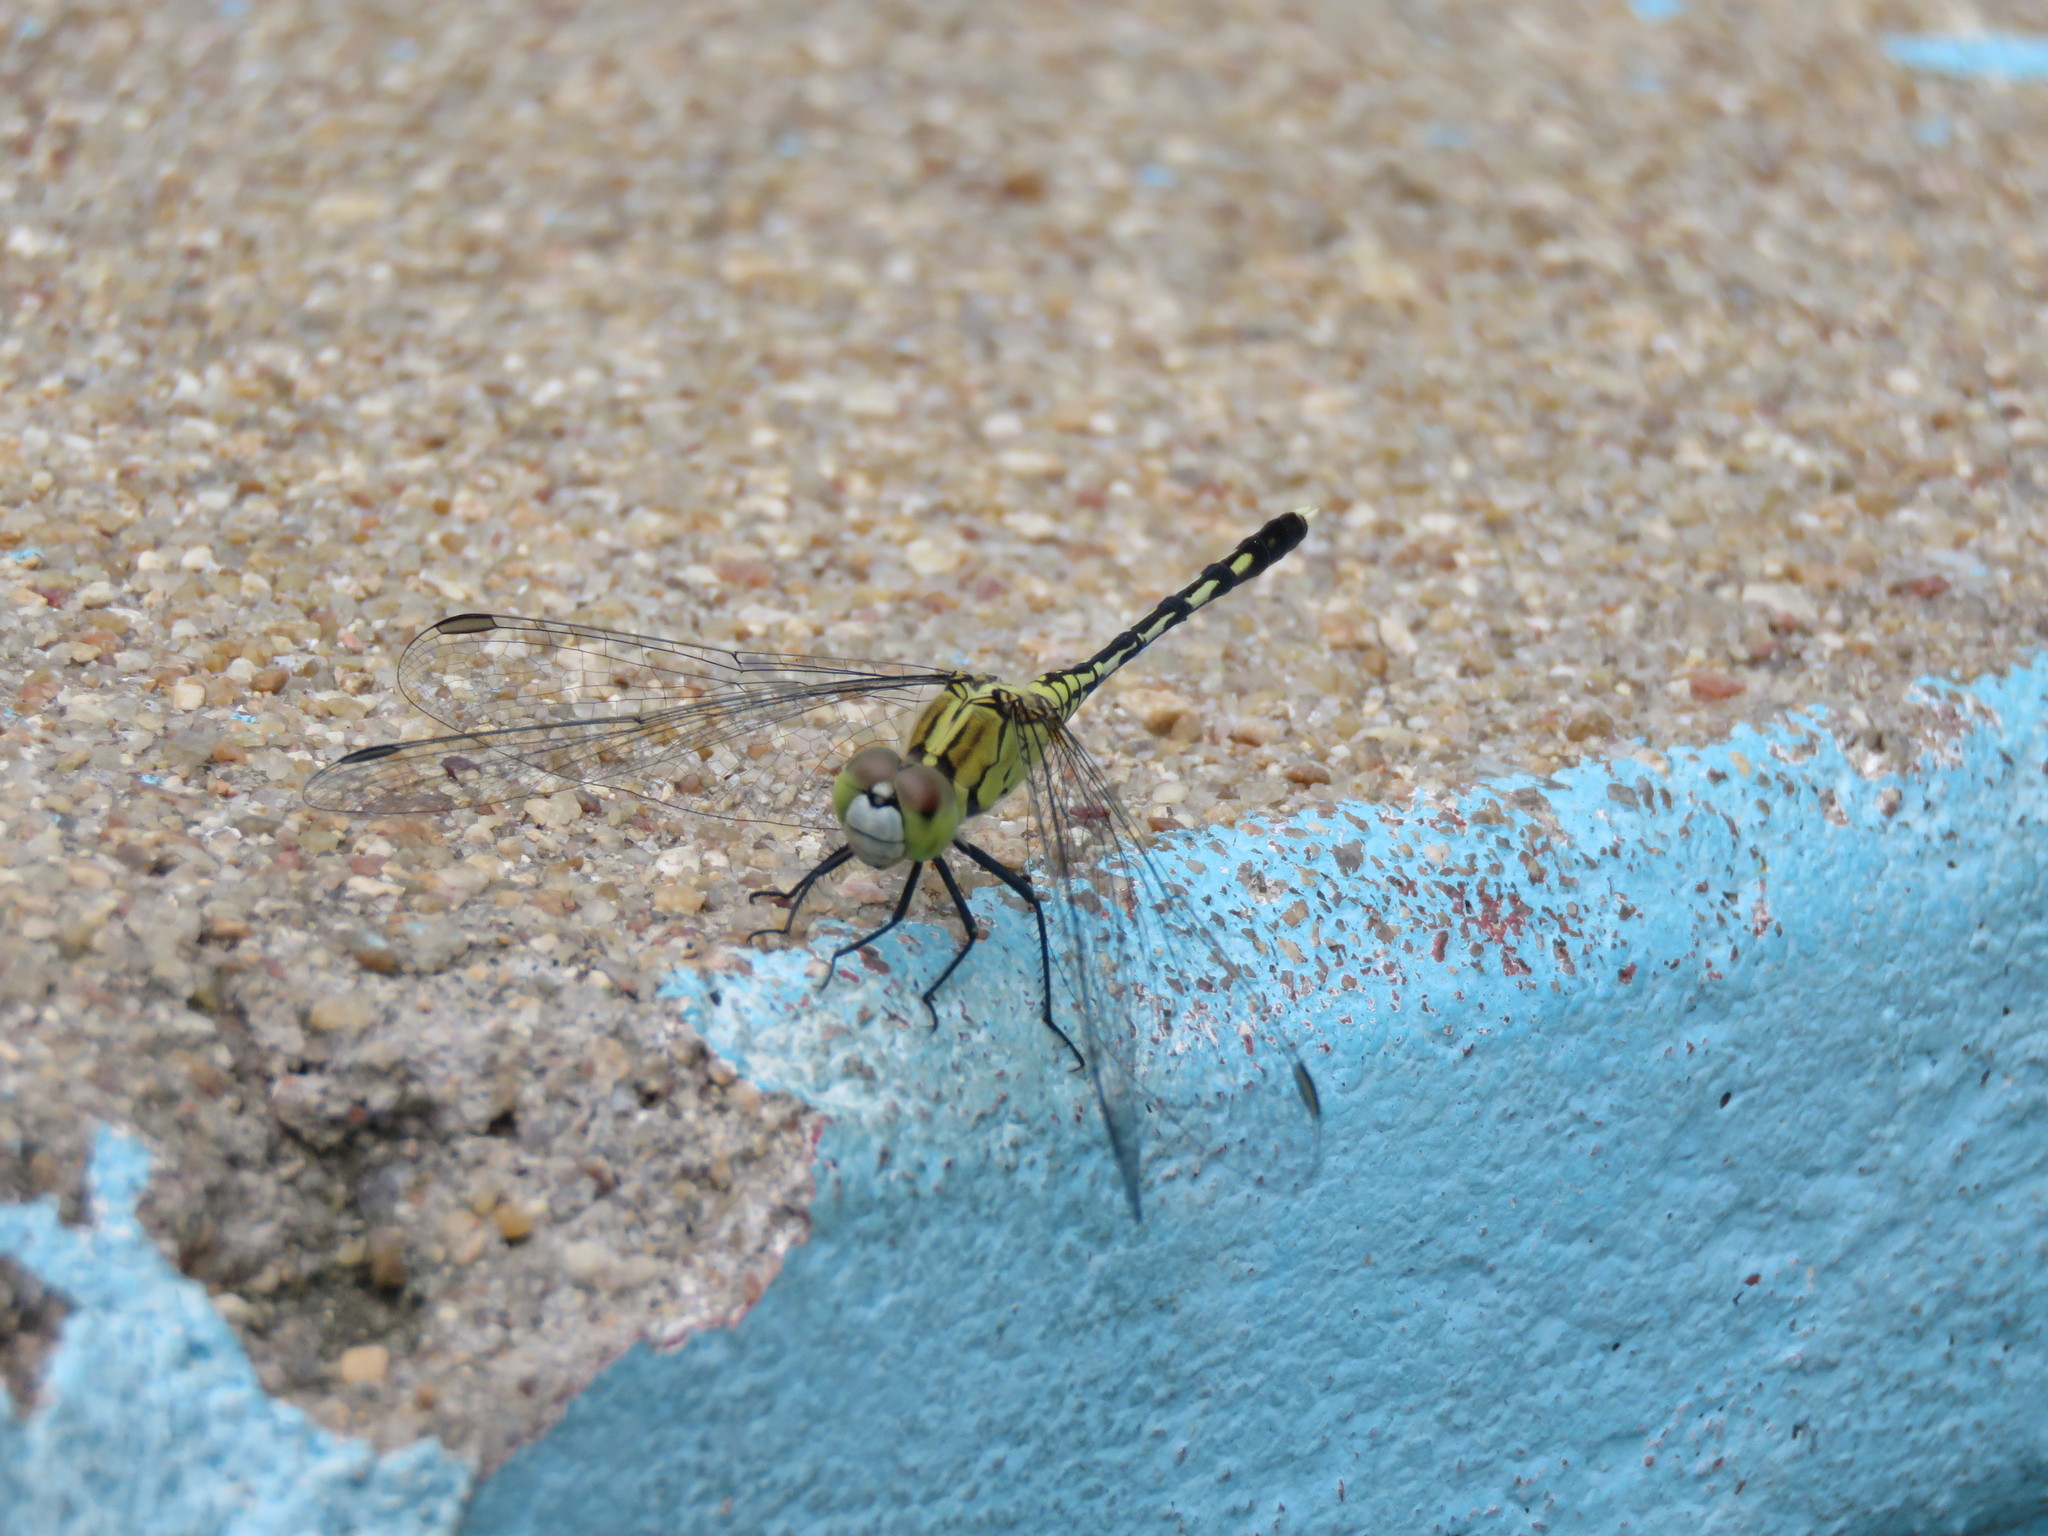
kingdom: Animalia
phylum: Arthropoda
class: Insecta
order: Odonata
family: Libellulidae
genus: Diplacodes
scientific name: Diplacodes trivialis
